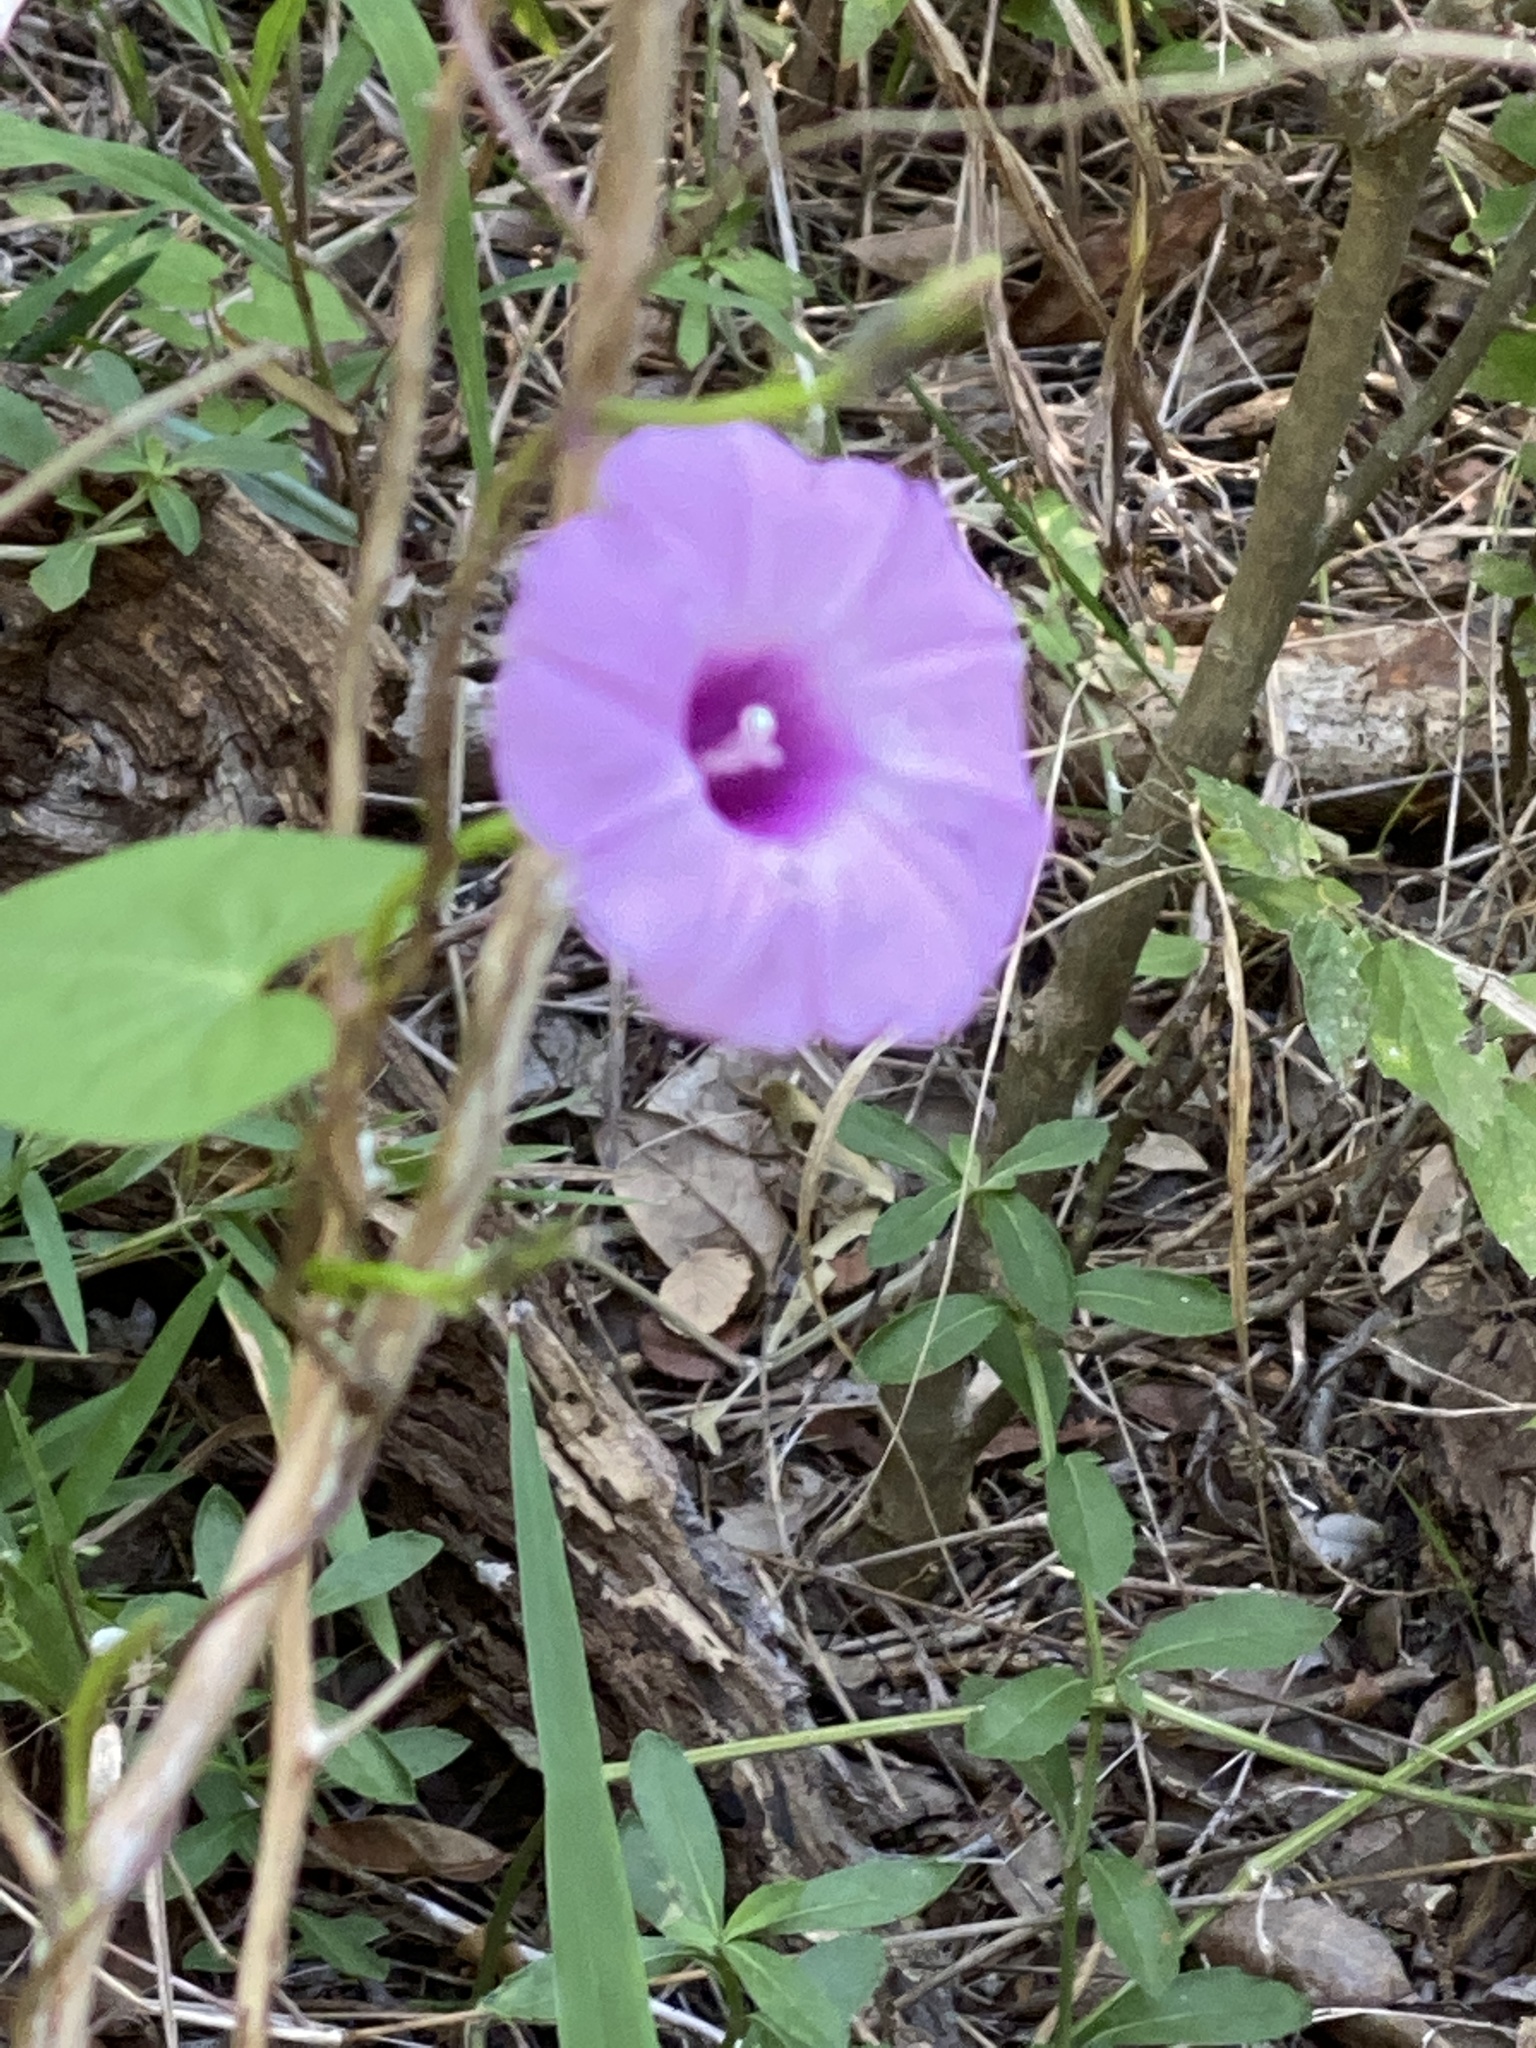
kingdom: Plantae
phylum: Tracheophyta
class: Magnoliopsida
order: Solanales
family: Convolvulaceae
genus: Ipomoea
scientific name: Ipomoea cordatotriloba
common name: Cotton morning glory
